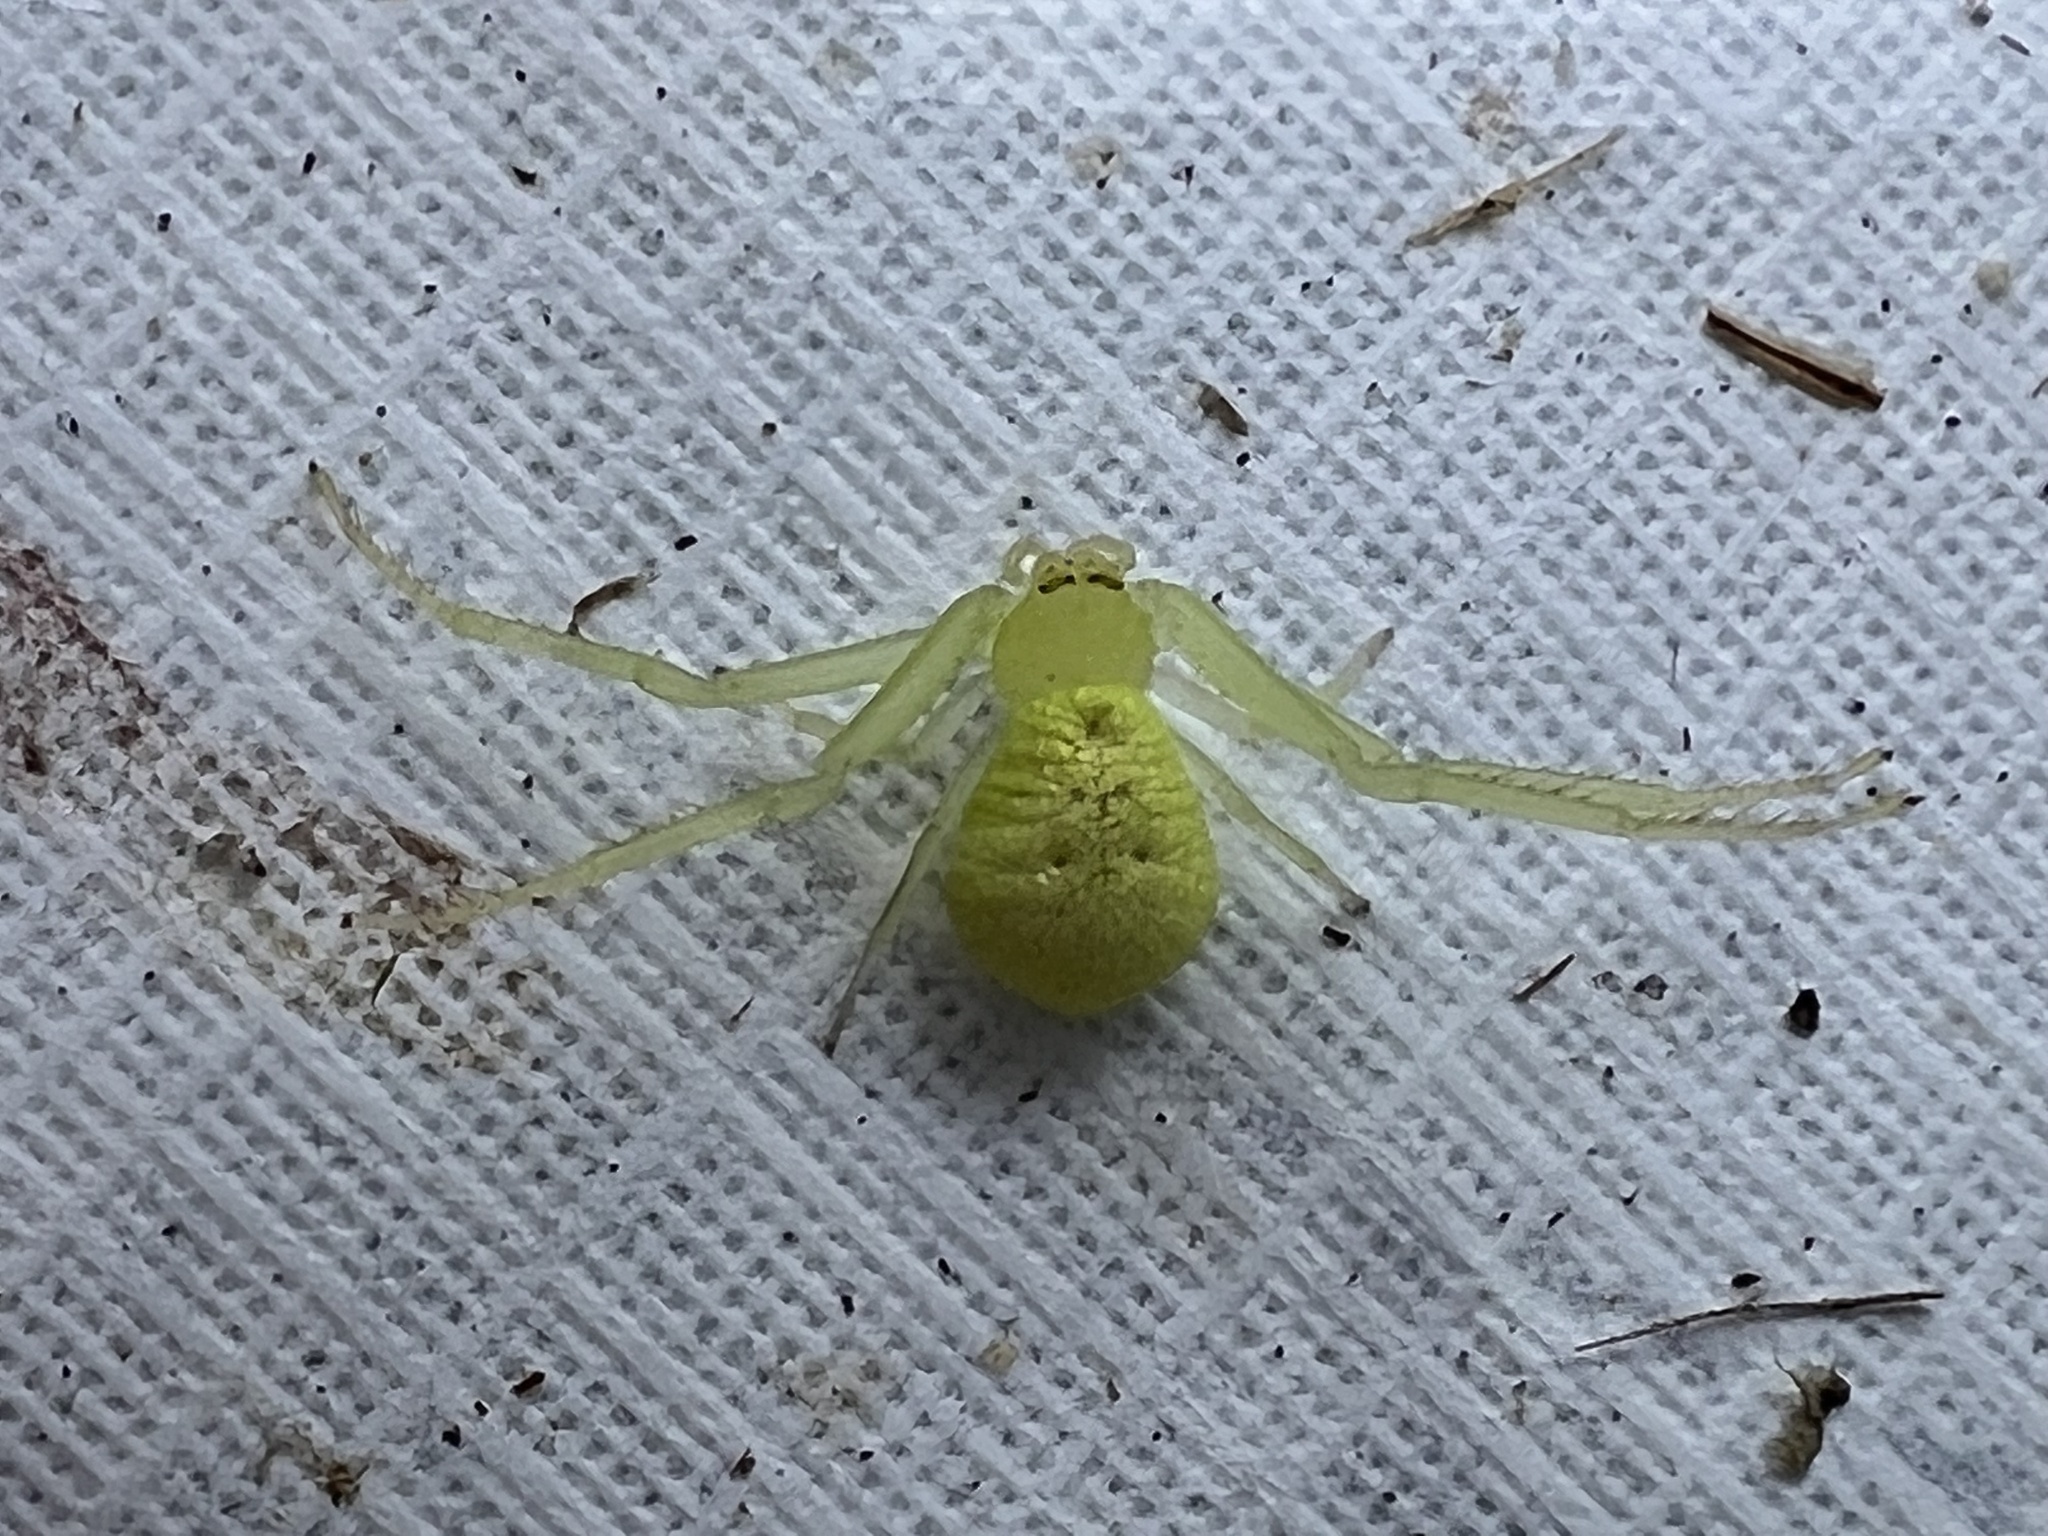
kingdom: Animalia
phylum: Arthropoda
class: Arachnida
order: Araneae
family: Thomisidae
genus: Misumessus
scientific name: Misumessus oblongus
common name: American green crab spider
